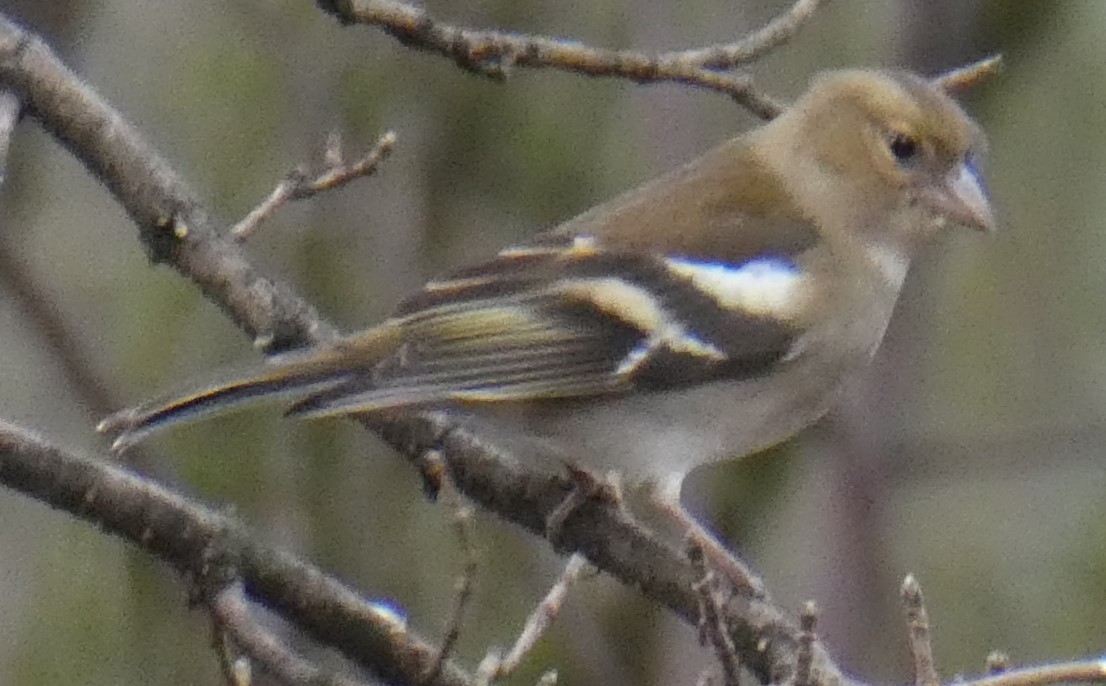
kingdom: Animalia
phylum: Chordata
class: Aves
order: Passeriformes
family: Fringillidae
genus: Fringilla
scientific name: Fringilla coelebs
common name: Common chaffinch
